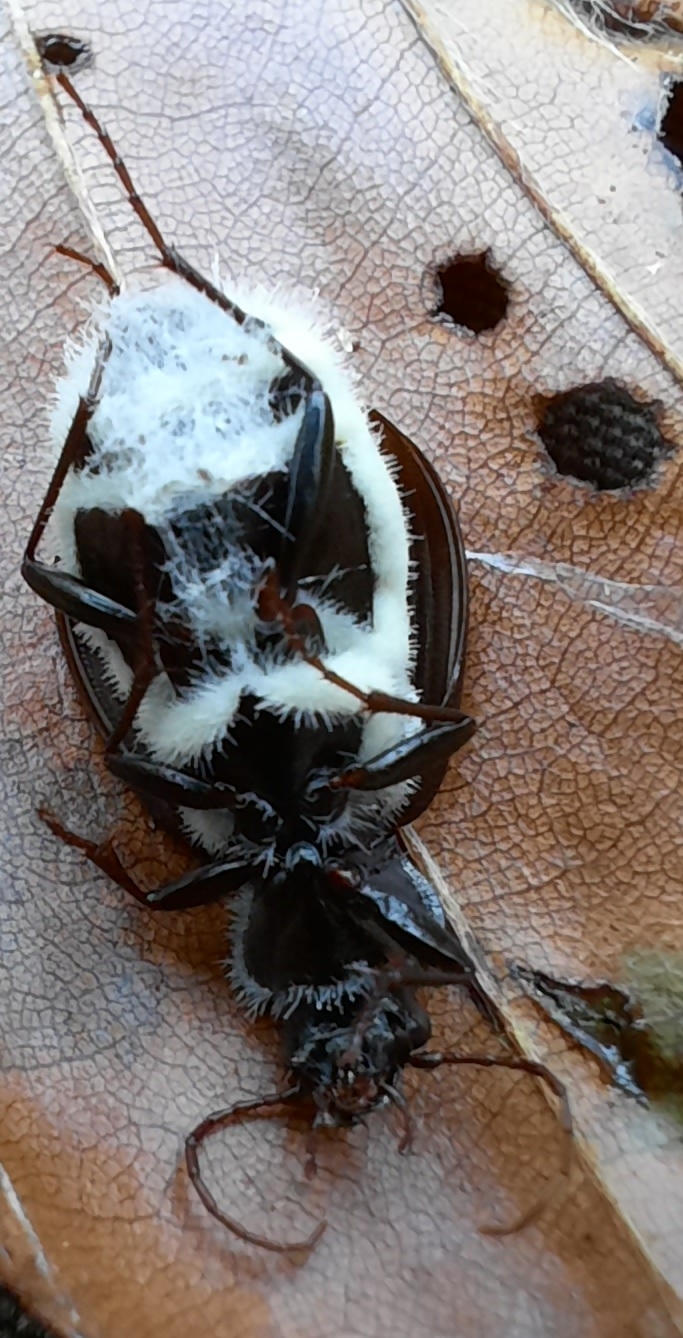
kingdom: Animalia
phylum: Arthropoda
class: Insecta
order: Coleoptera
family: Carabidae
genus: Nebria
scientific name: Nebria brevicollis
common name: Short-necked gazelle beetle
